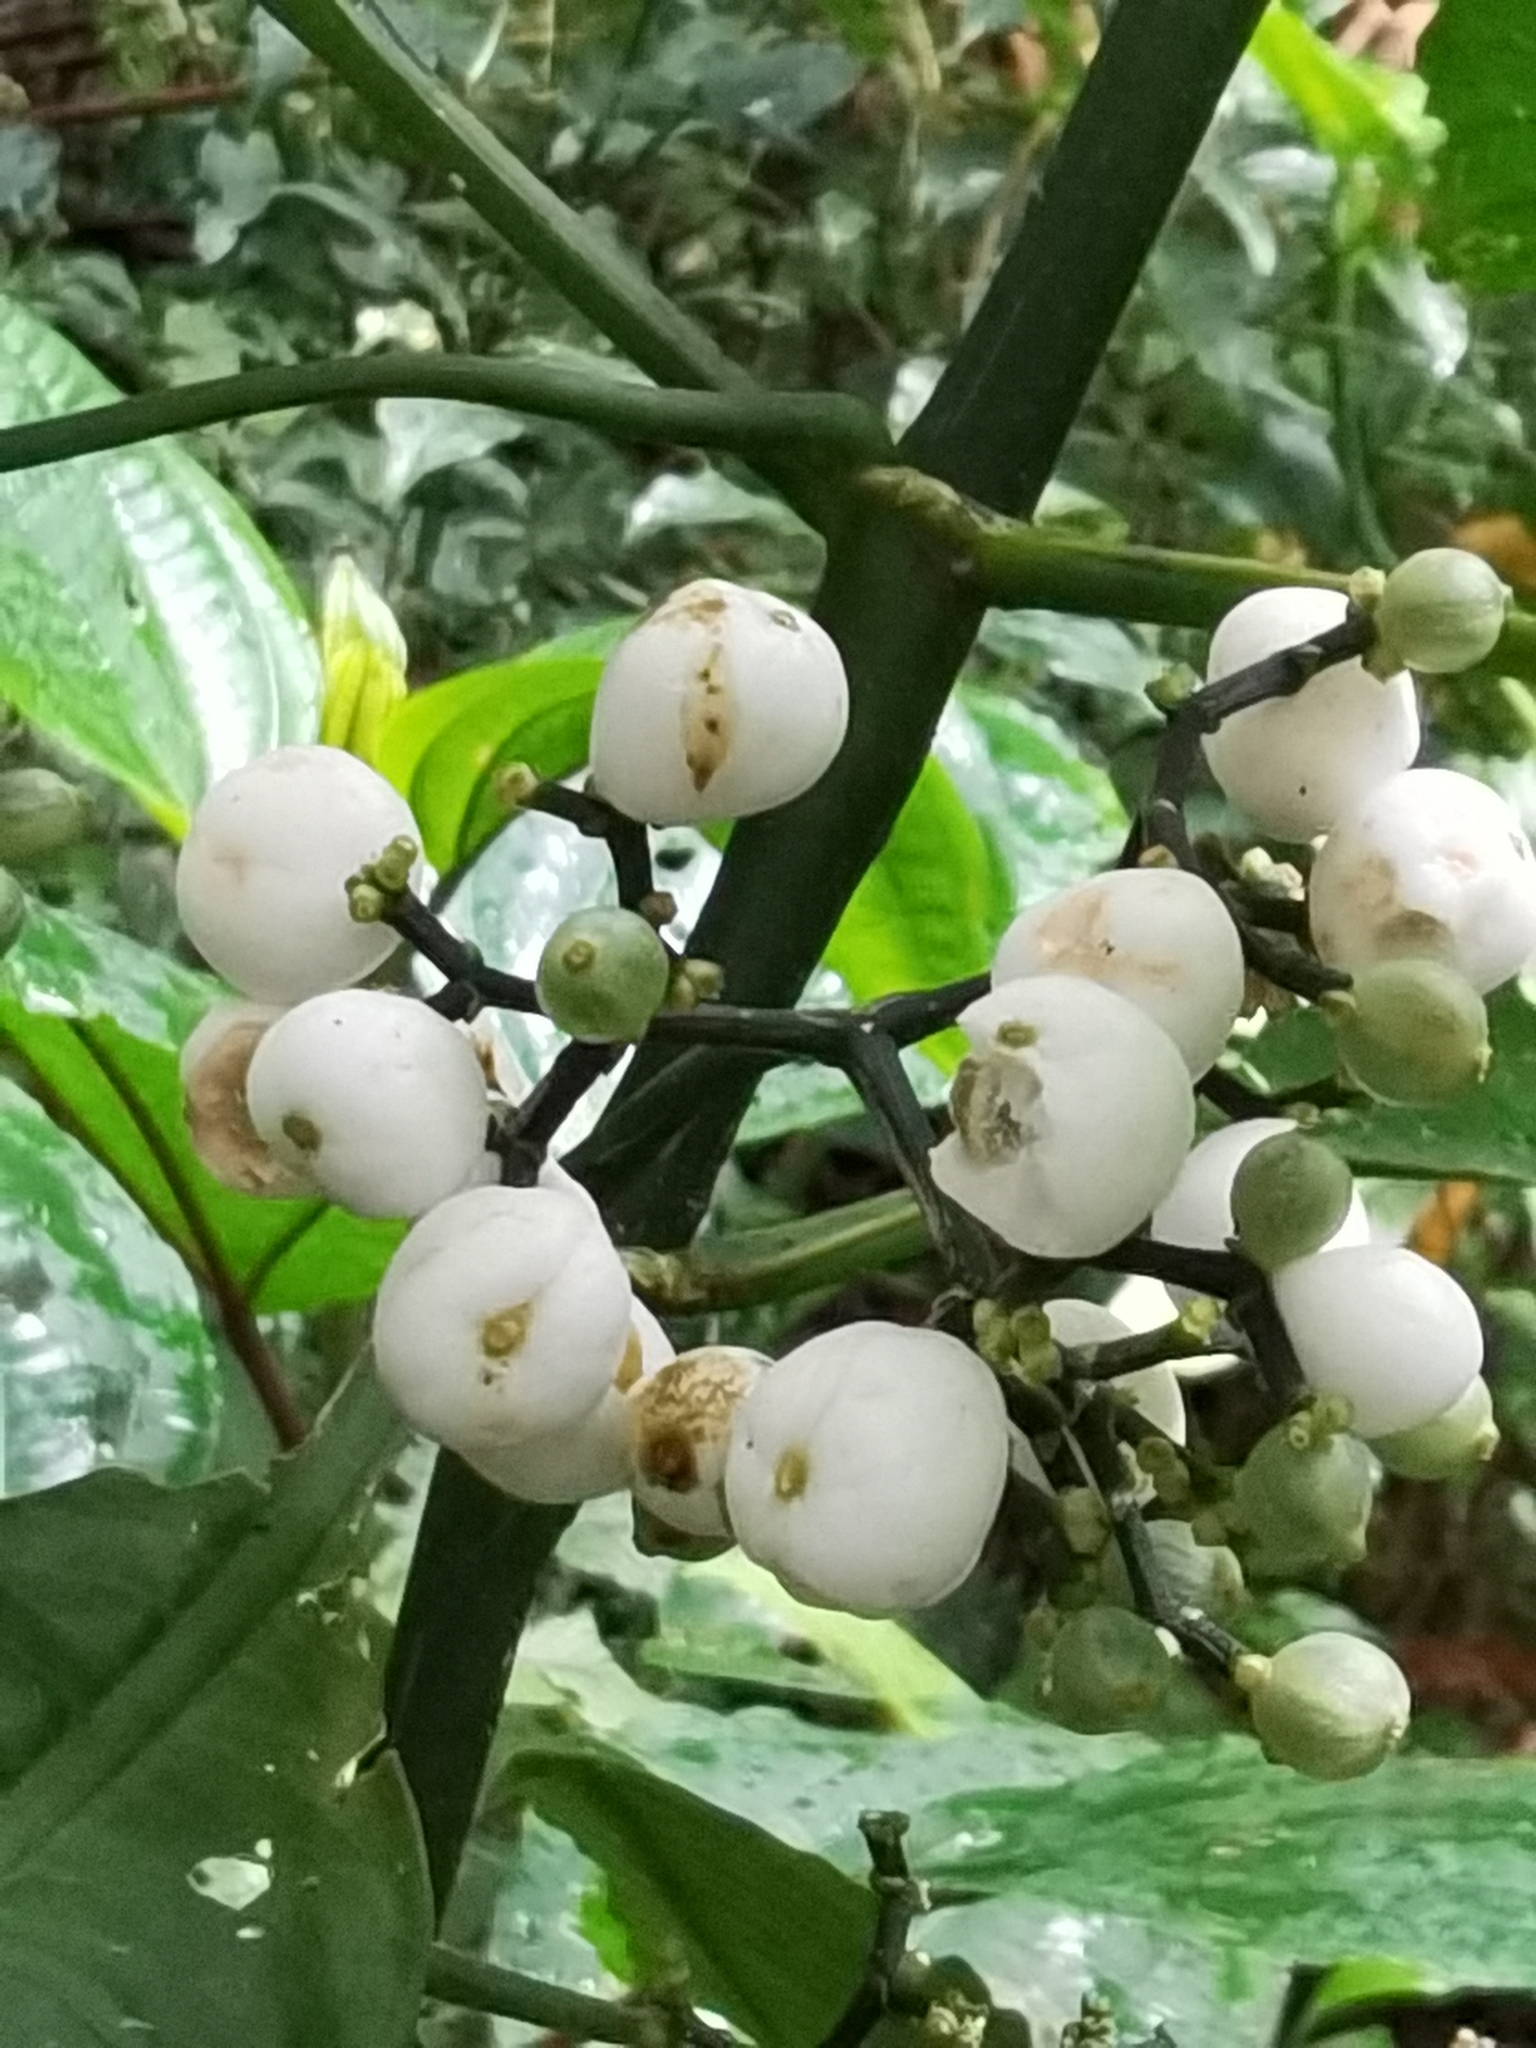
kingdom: Plantae
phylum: Tracheophyta
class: Magnoliopsida
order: Gentianales
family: Rubiaceae
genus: Notopleura
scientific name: Notopleura tolimensis
